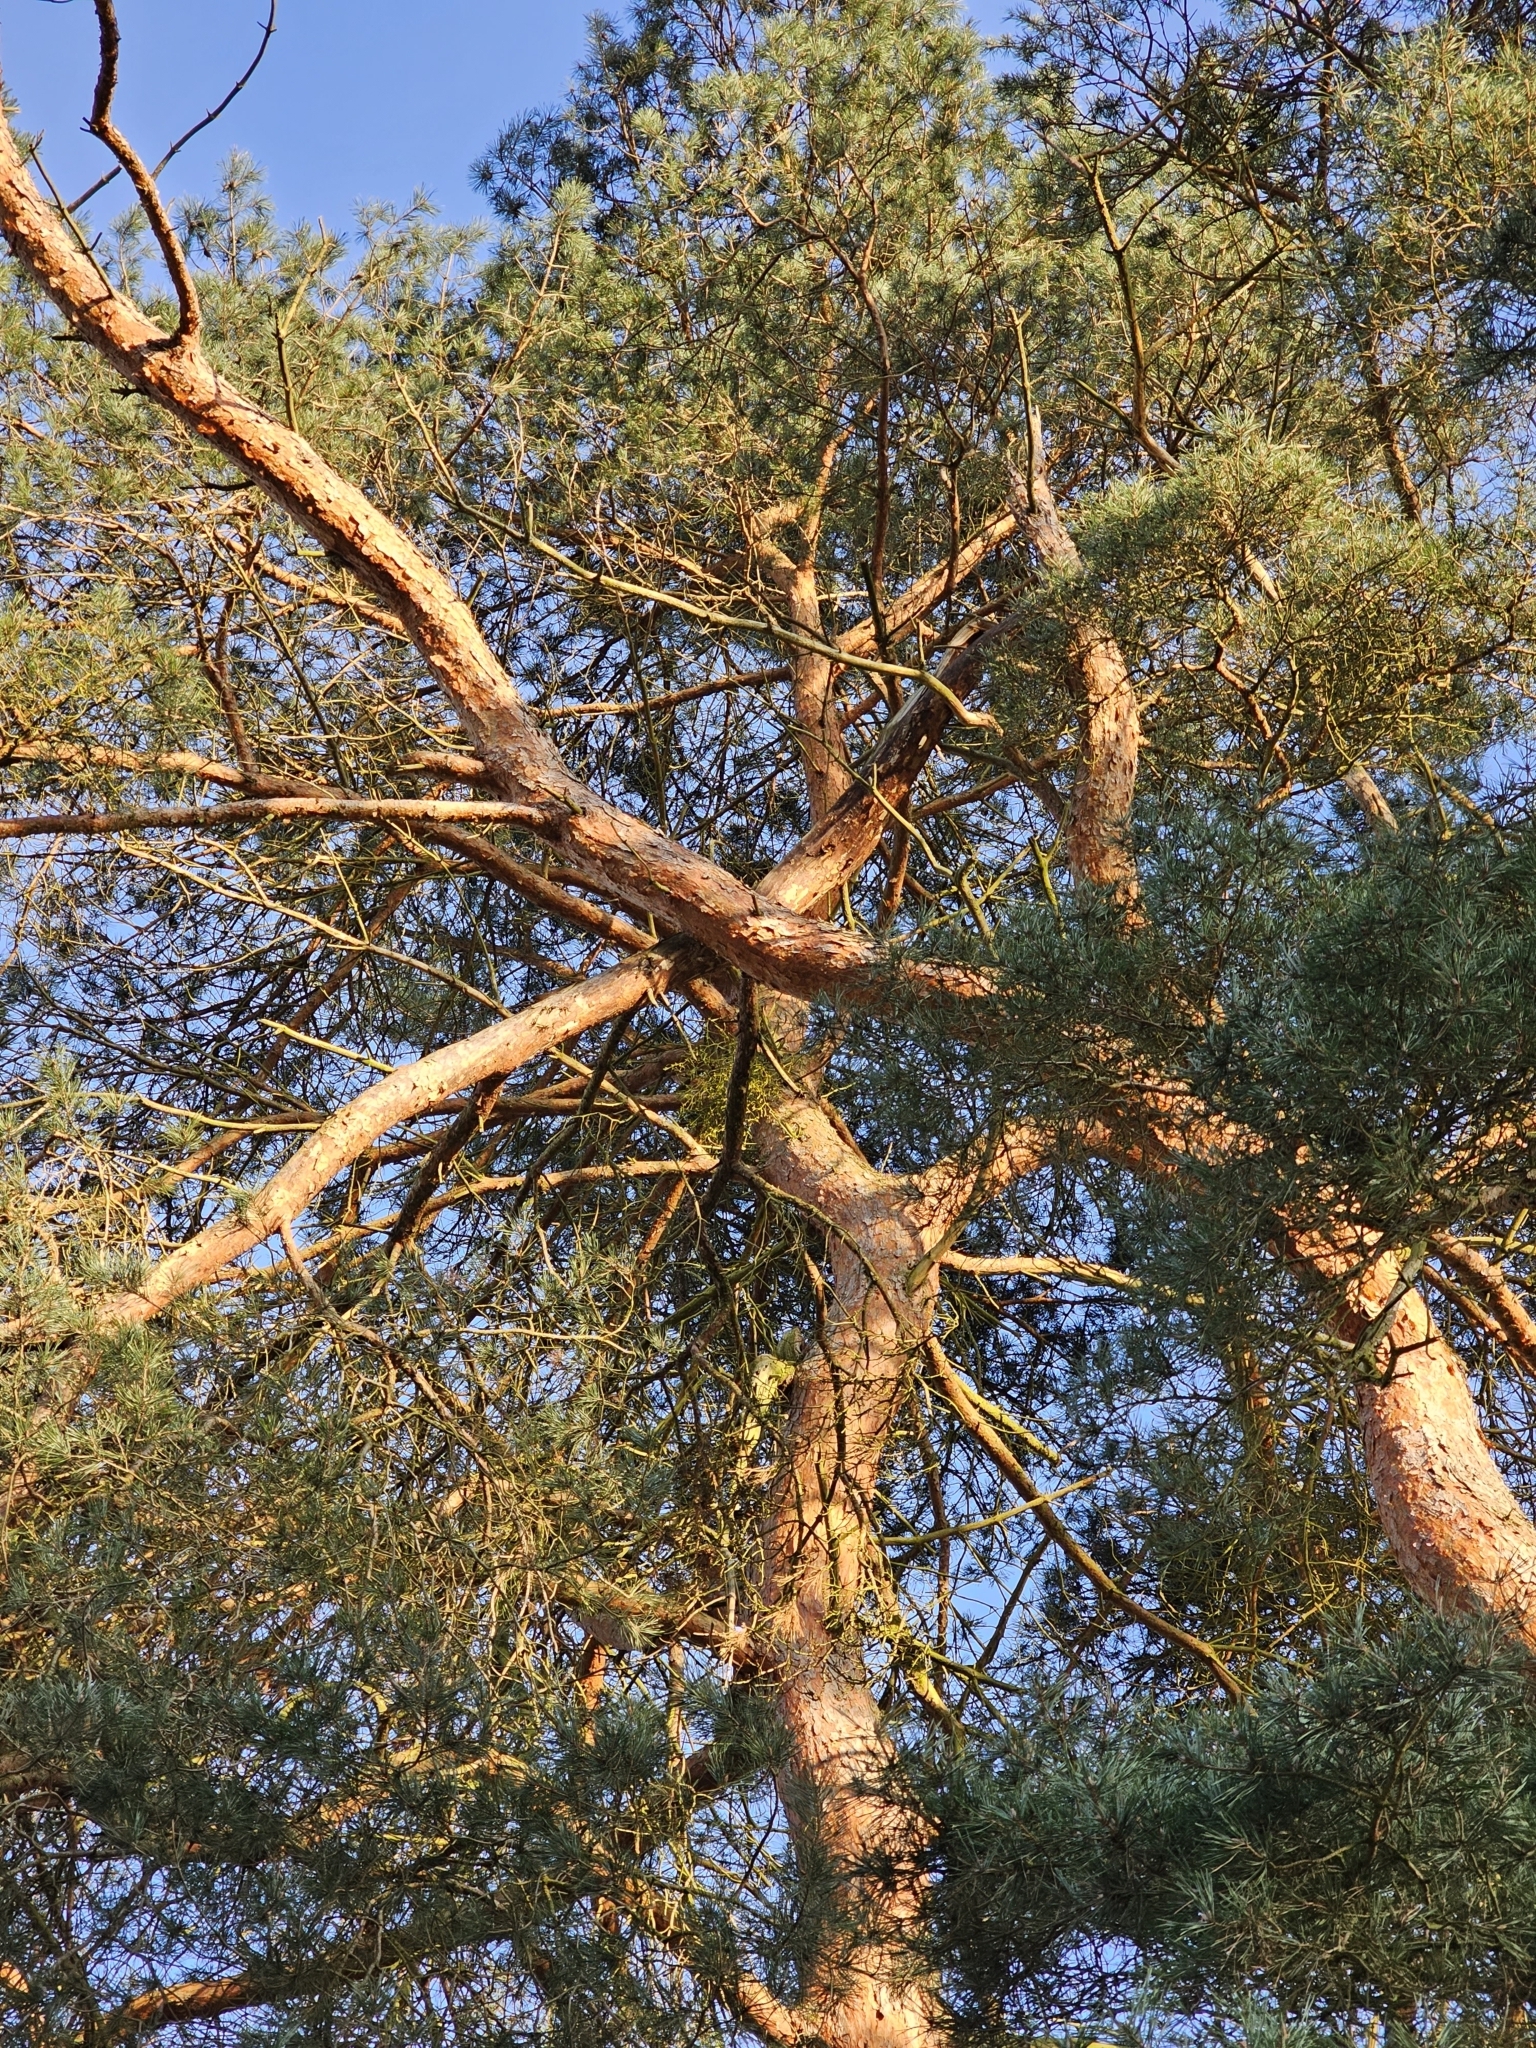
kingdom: Plantae
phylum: Tracheophyta
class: Pinopsida
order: Pinales
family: Pinaceae
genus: Pinus
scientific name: Pinus sylvestris
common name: Scots pine
